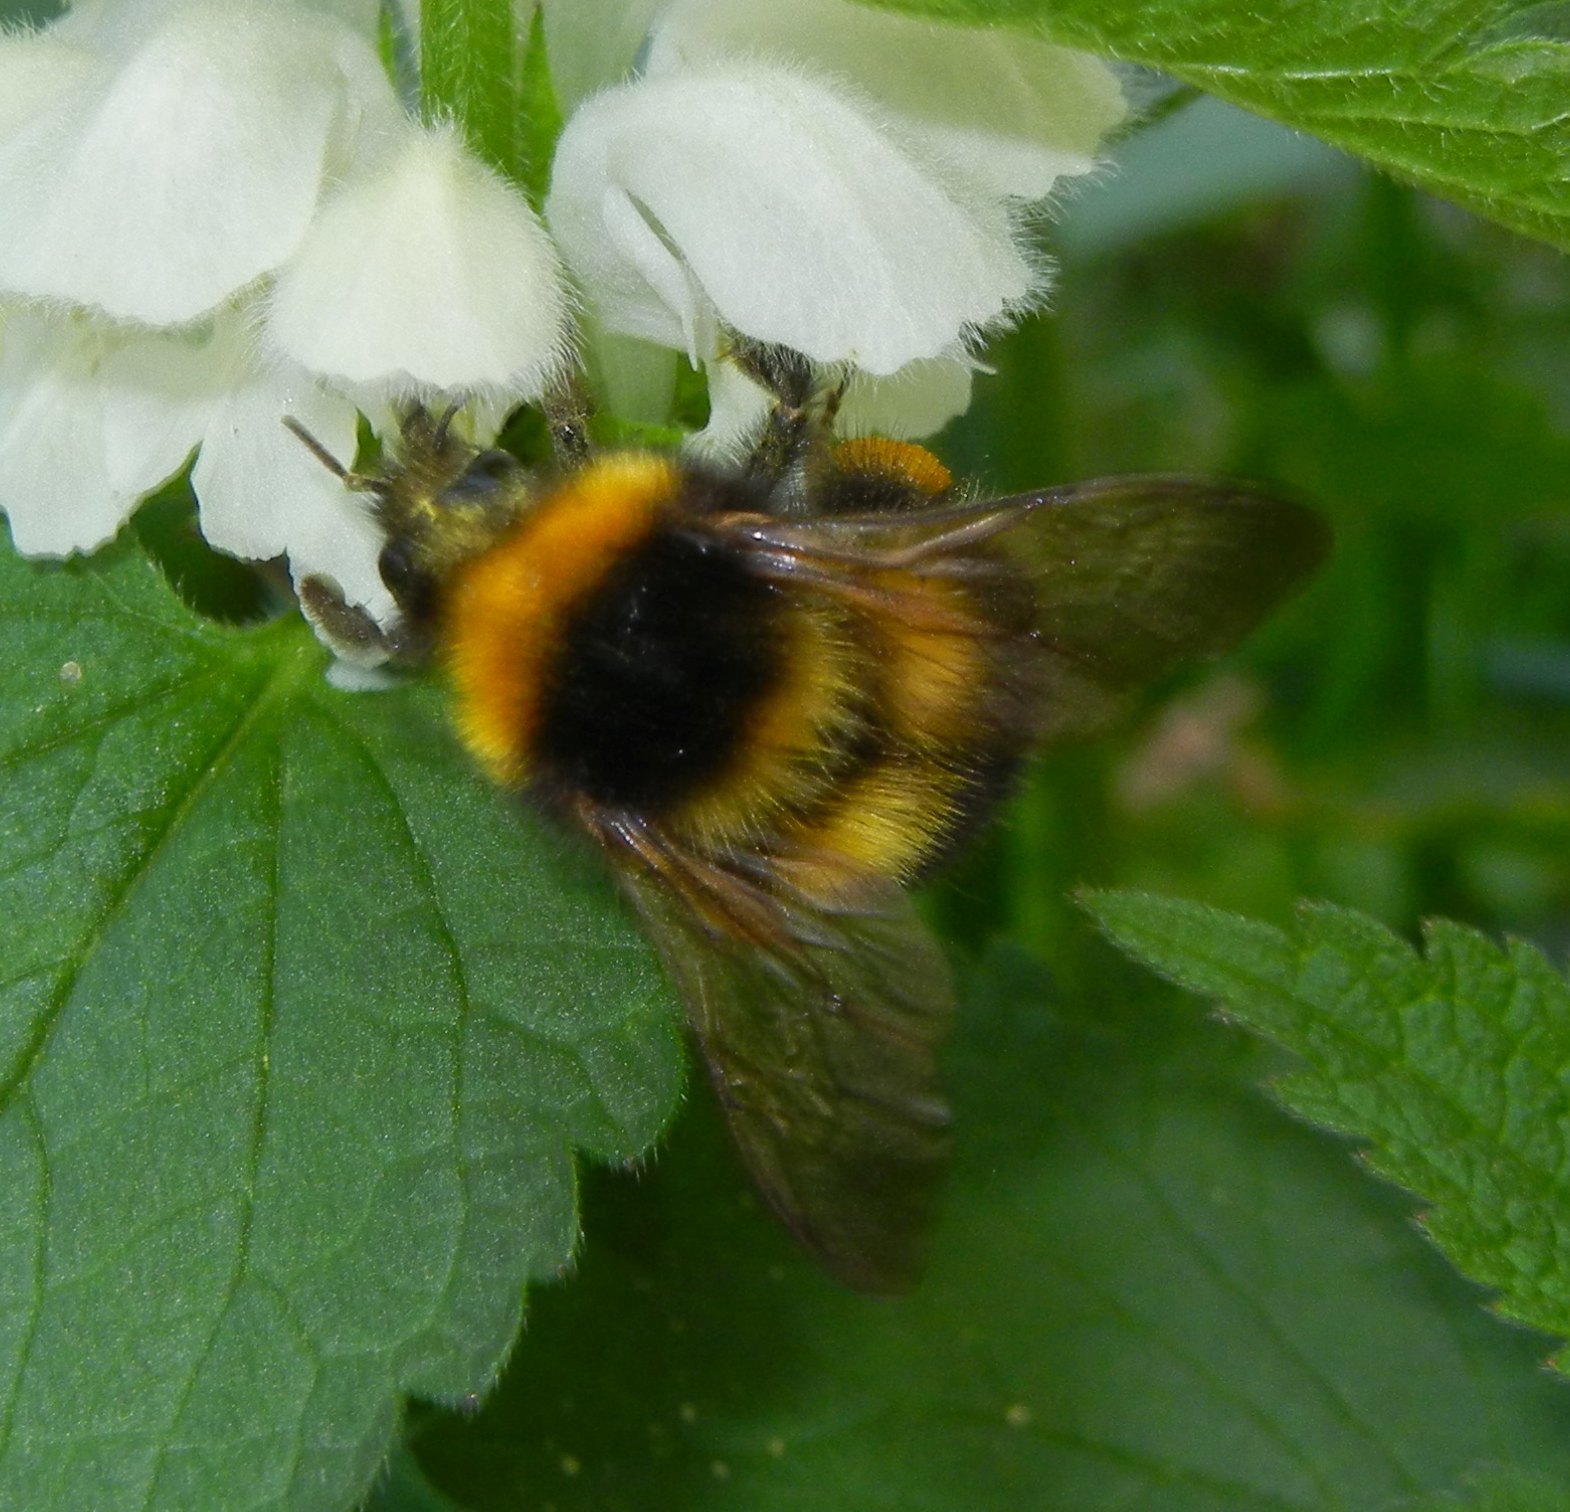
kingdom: Animalia
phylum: Arthropoda
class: Insecta
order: Hymenoptera
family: Apidae
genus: Bombus
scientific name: Bombus hortorum
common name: Garden bumblebee
